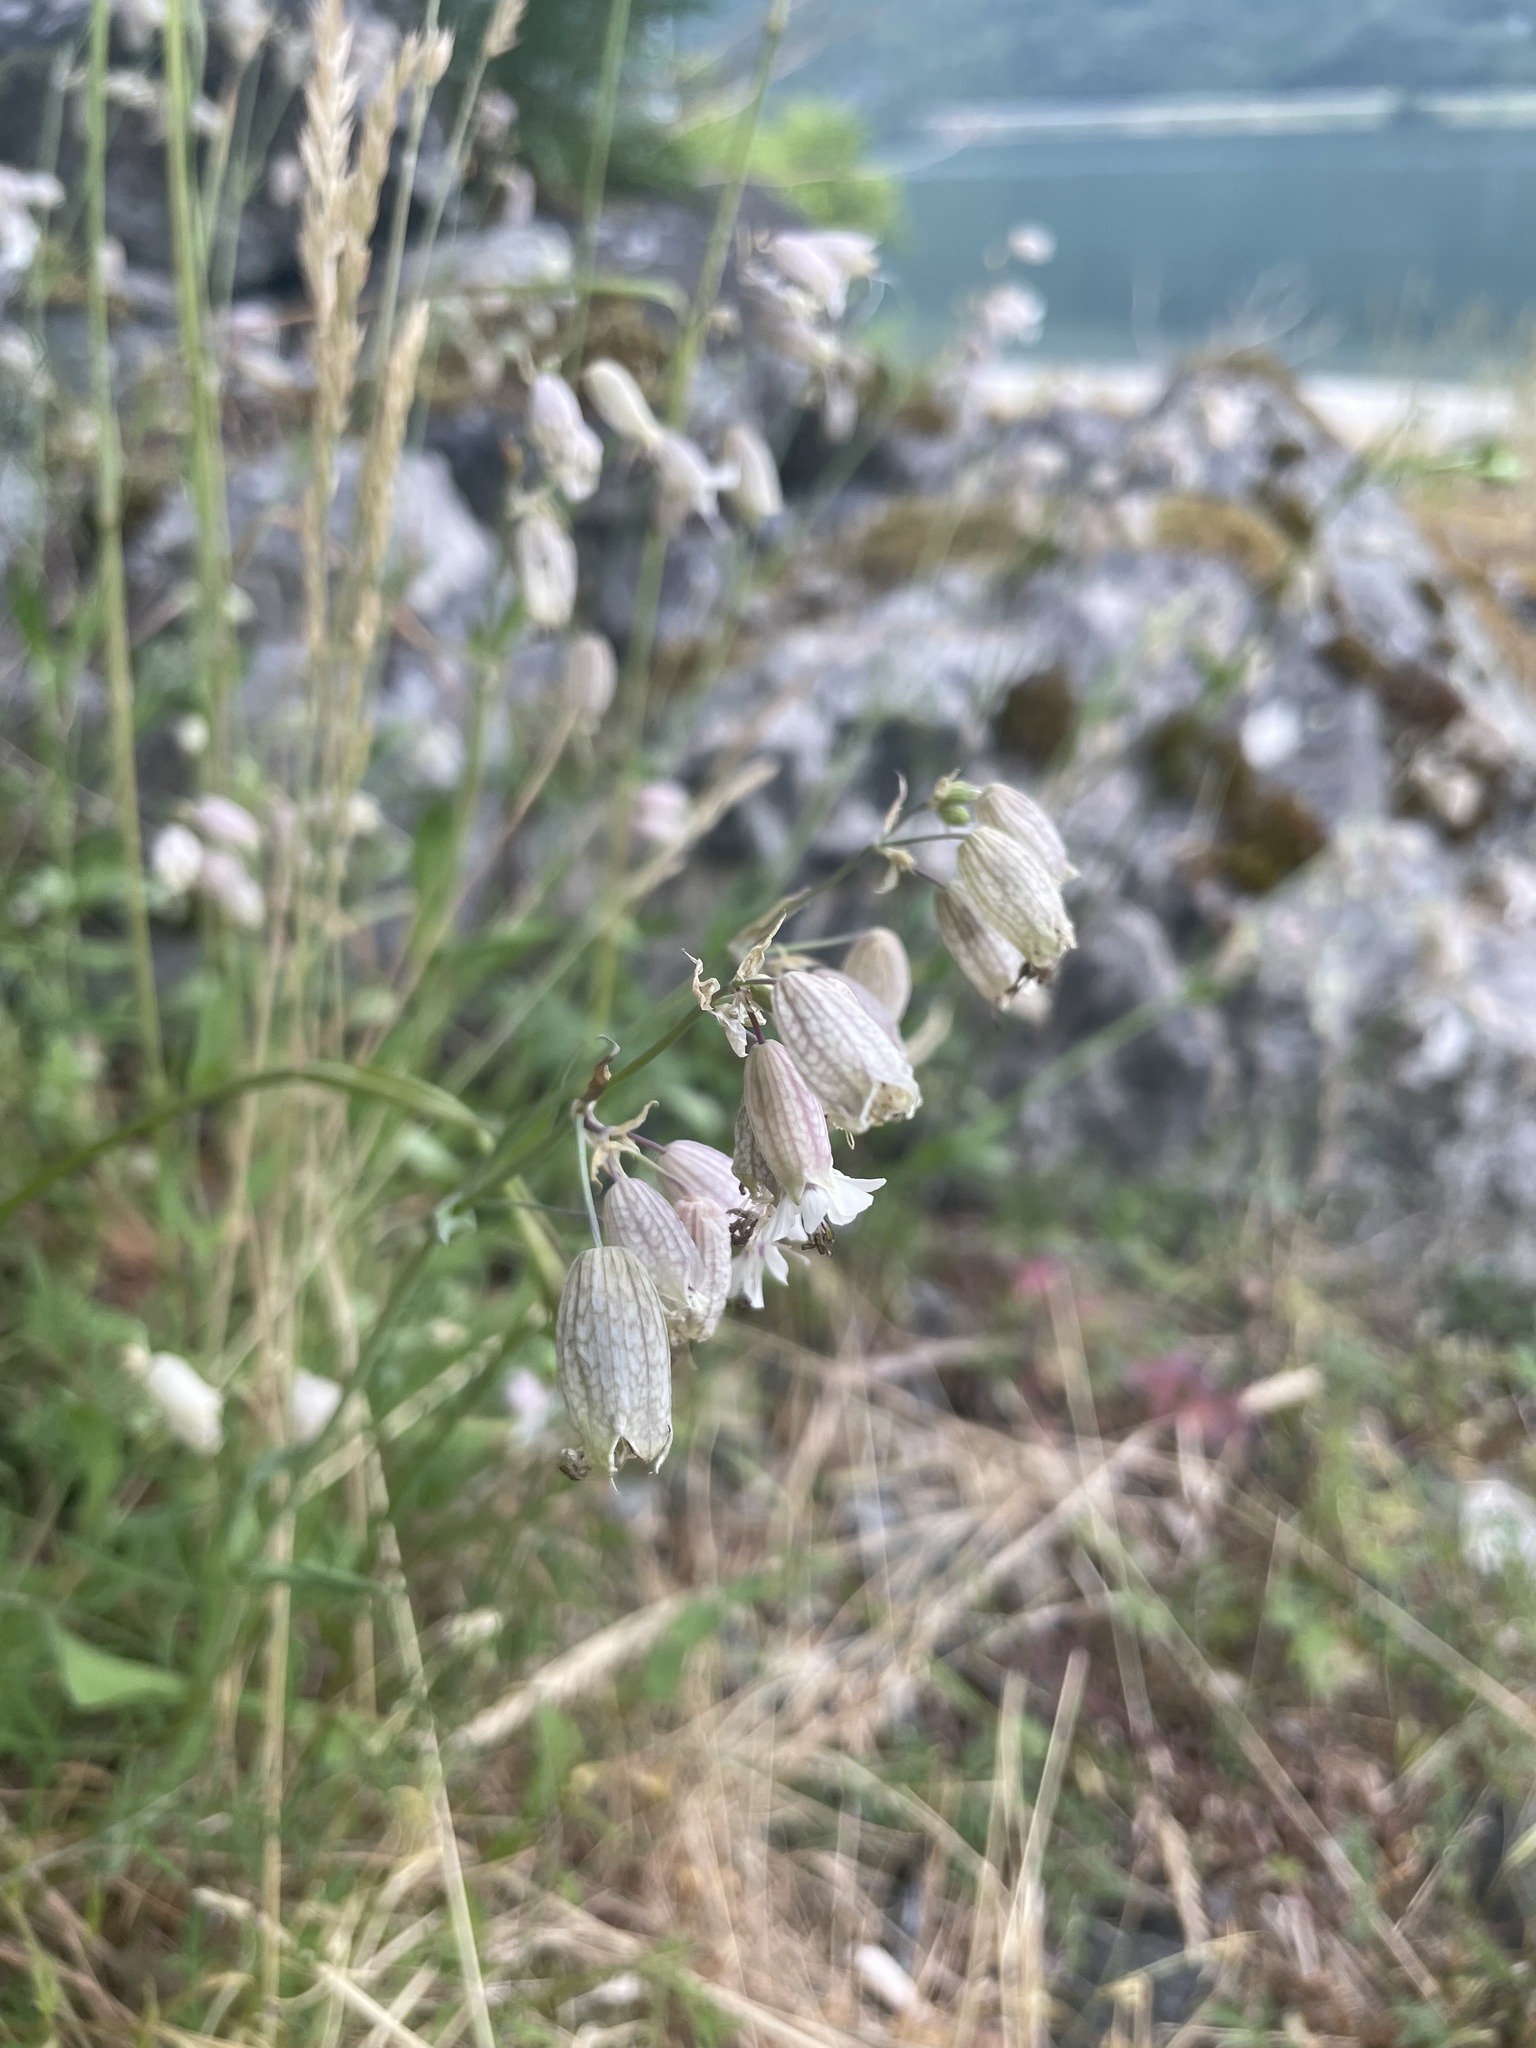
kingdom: Plantae
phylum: Tracheophyta
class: Magnoliopsida
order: Caryophyllales
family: Caryophyllaceae
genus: Silene
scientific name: Silene vulgaris
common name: Bladder campion
